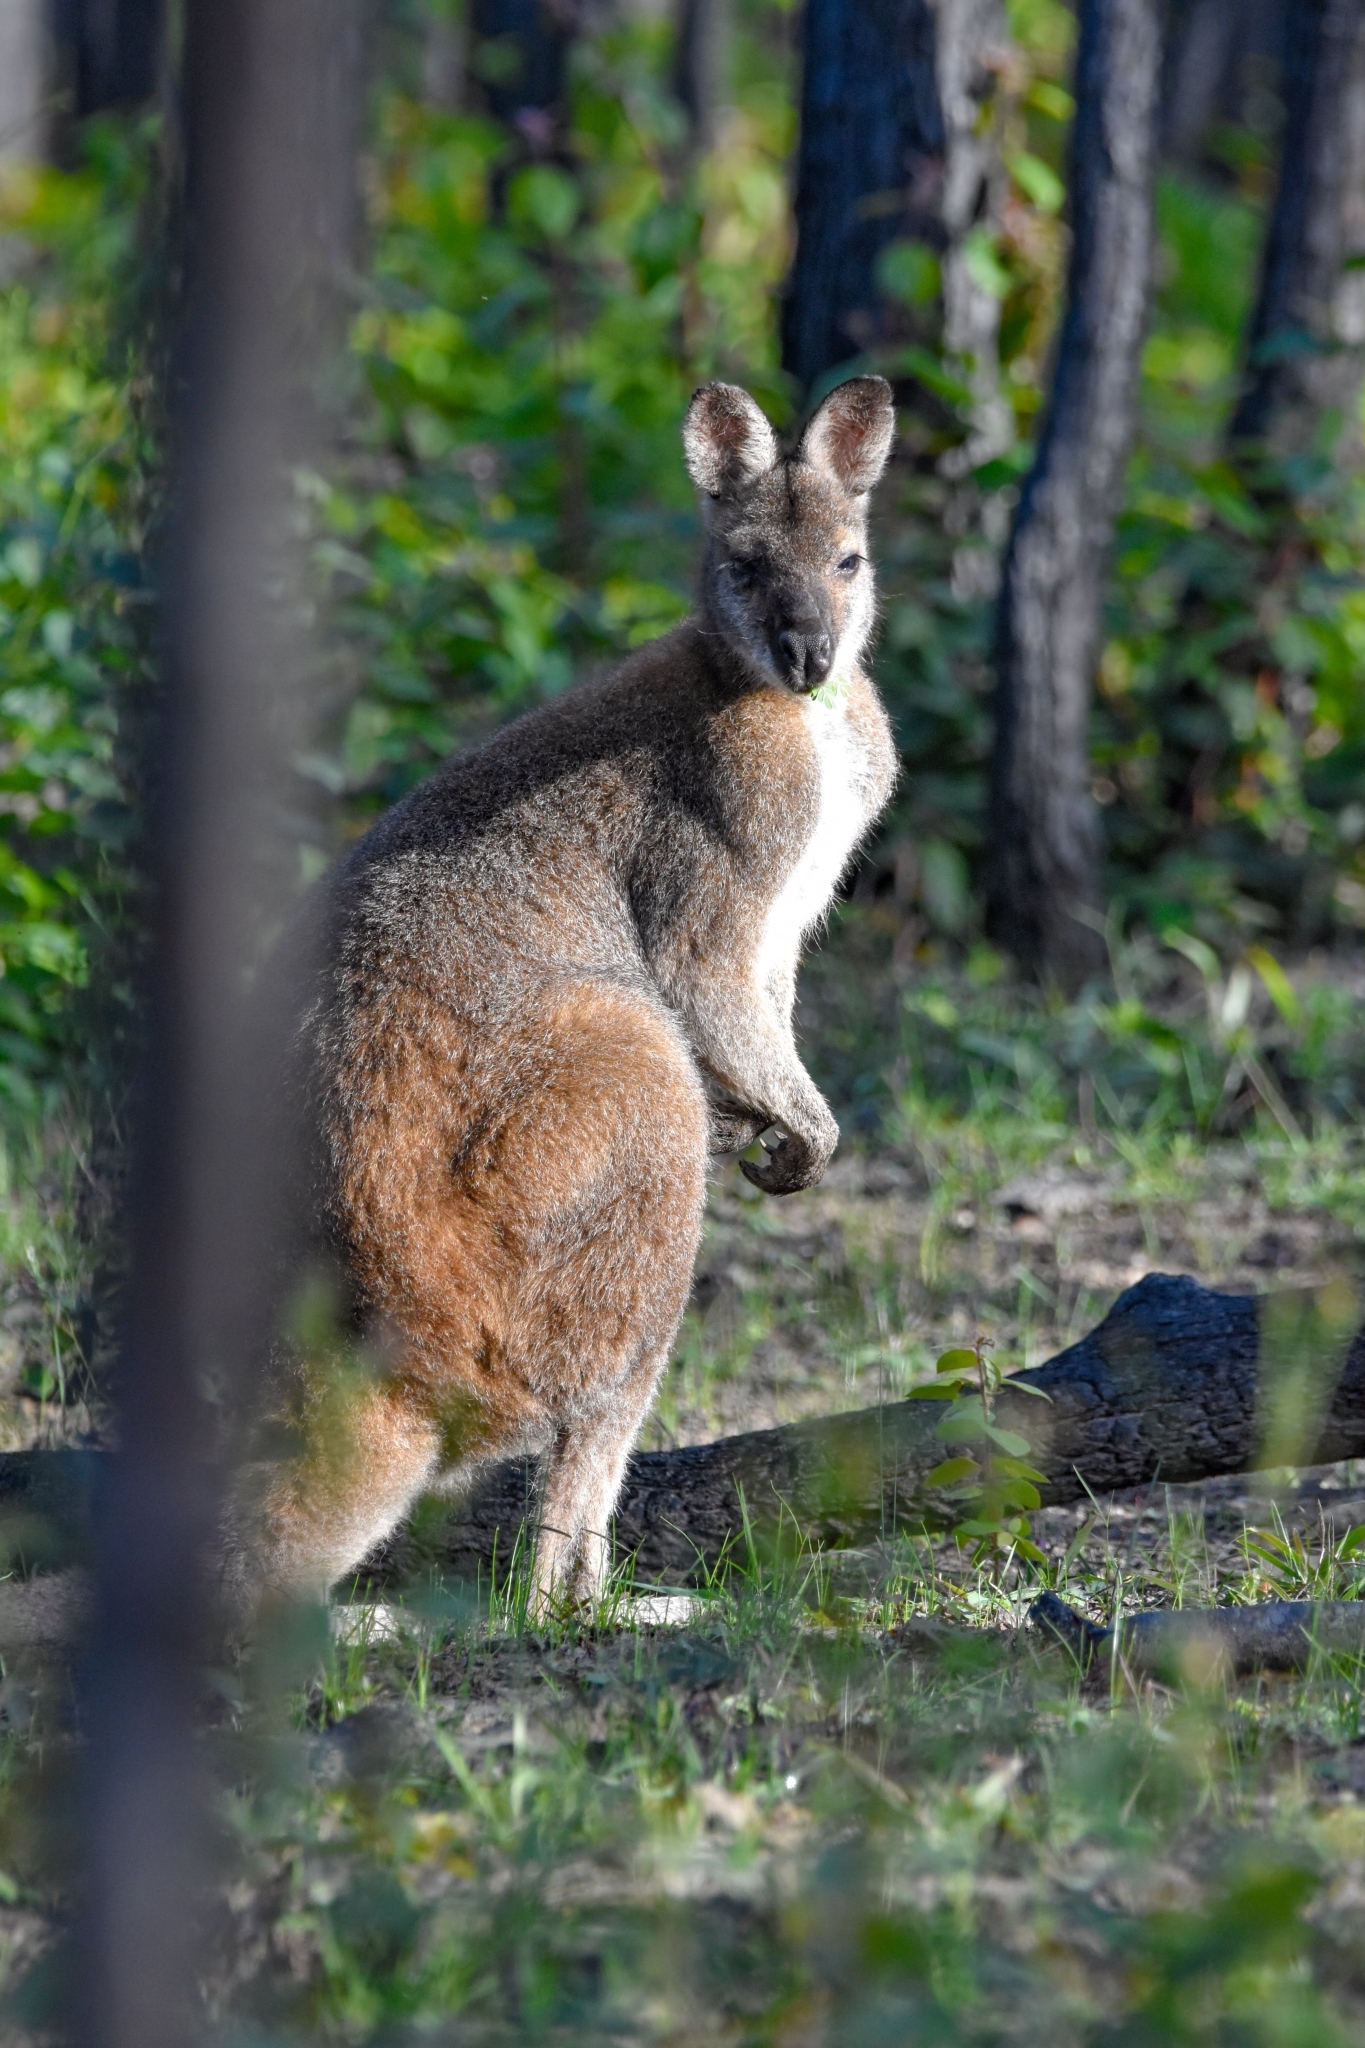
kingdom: Animalia
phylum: Chordata
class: Mammalia
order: Diprotodontia
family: Macropodidae
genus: Notamacropus
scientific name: Notamacropus rufogriseus
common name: Red-necked wallaby
